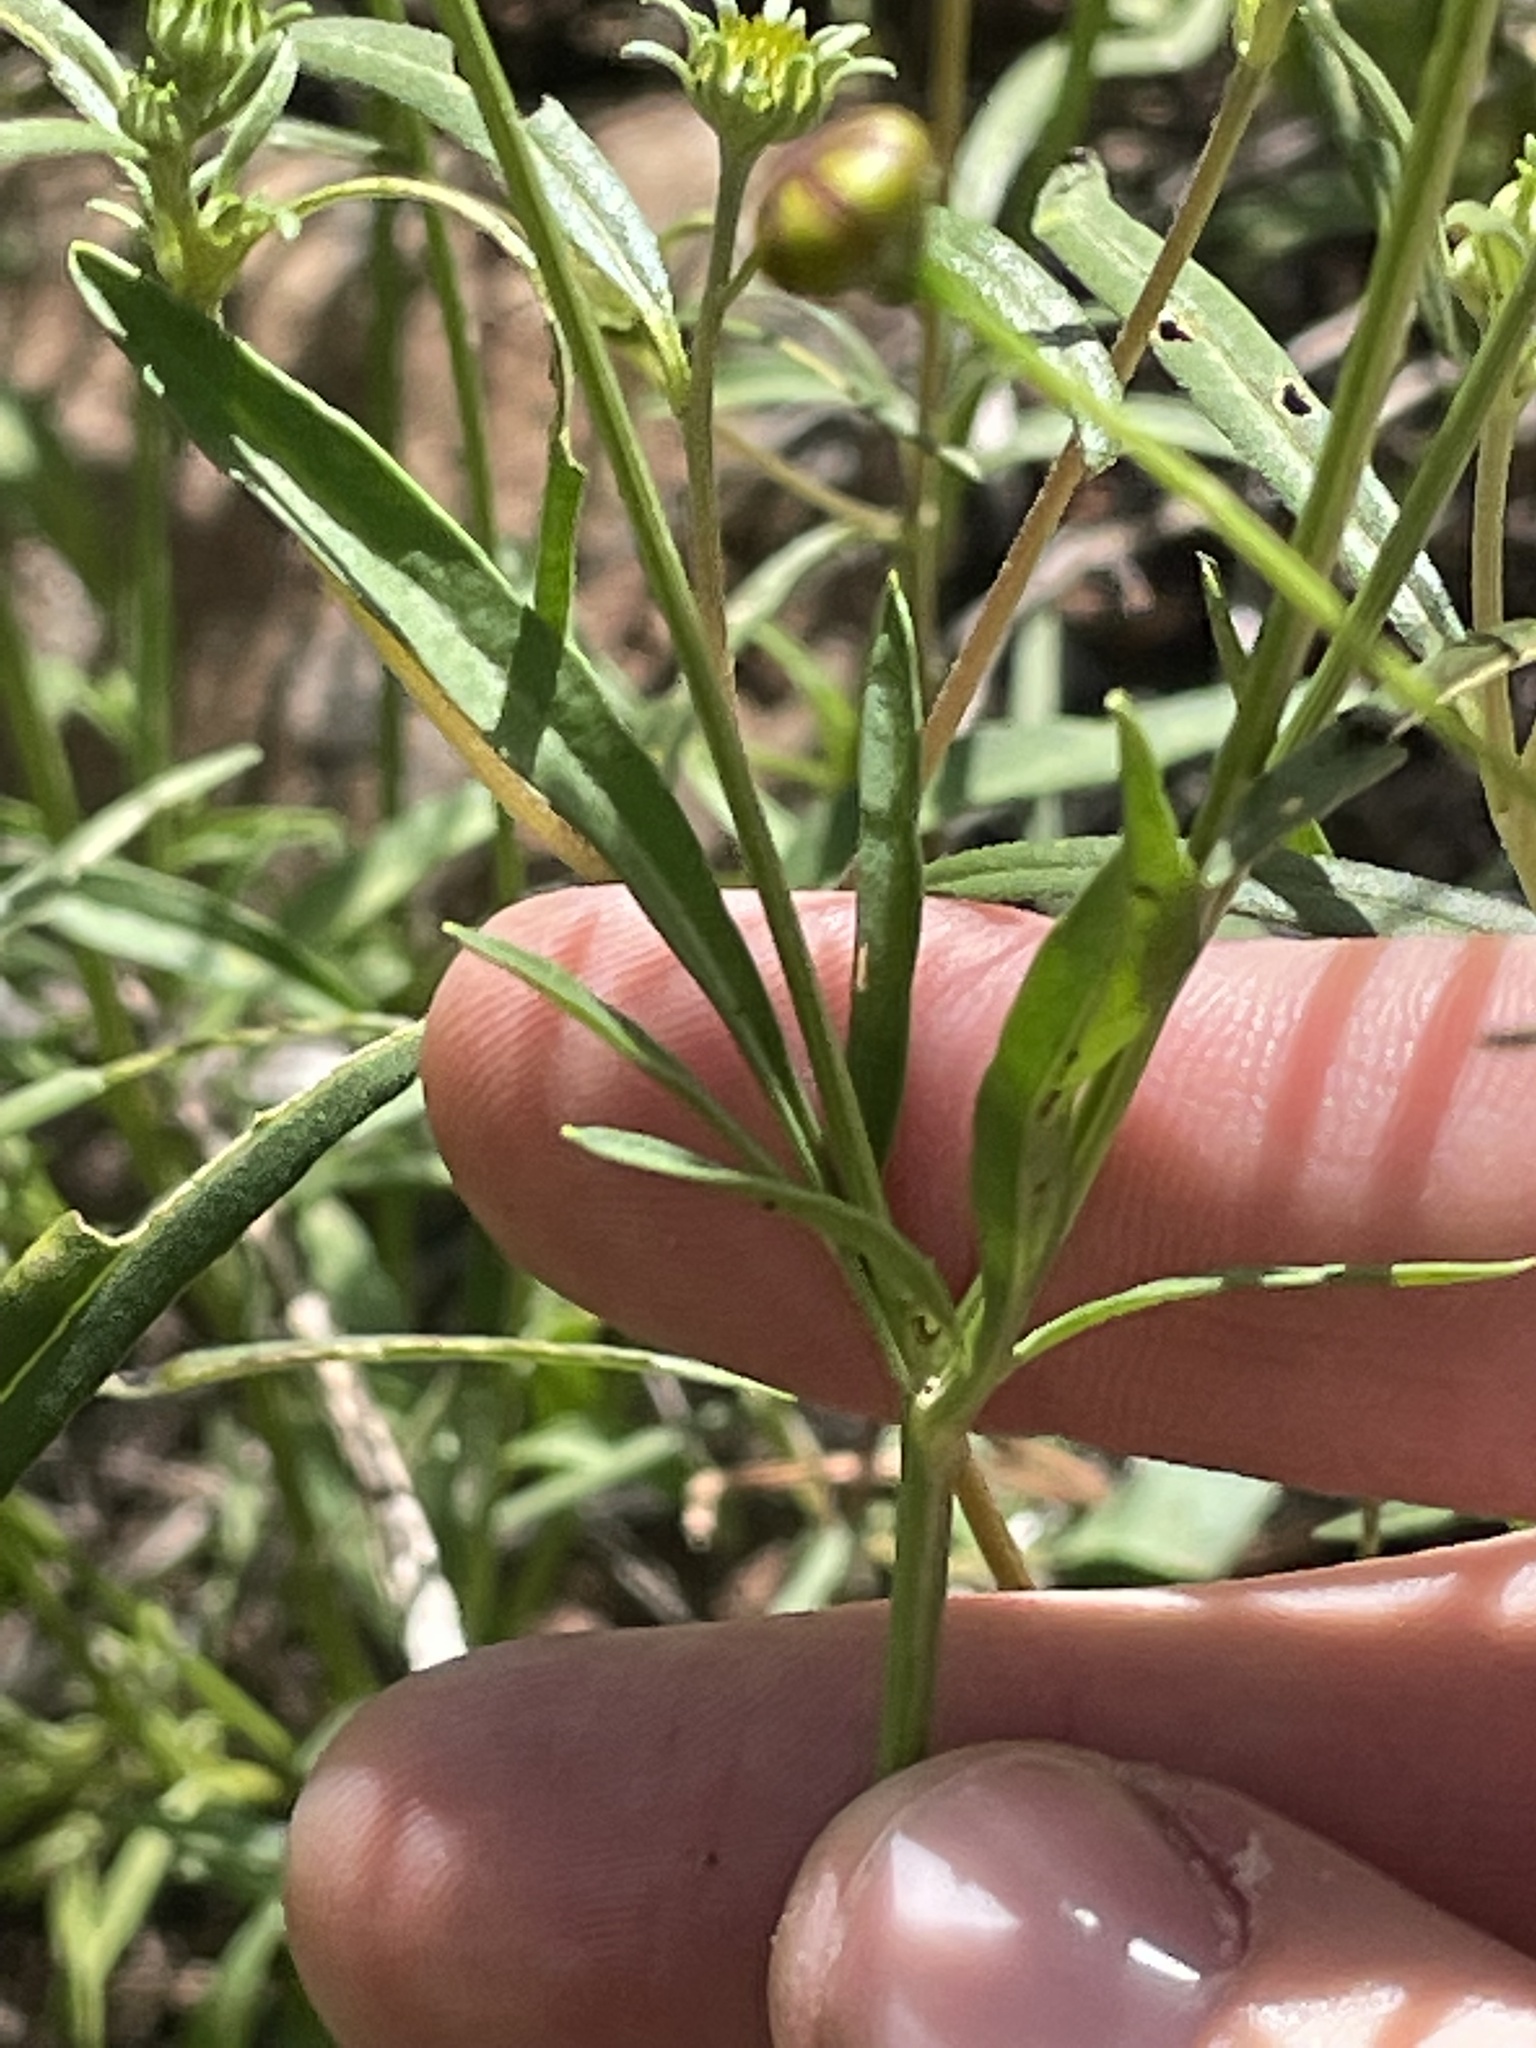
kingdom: Plantae
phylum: Tracheophyta
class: Magnoliopsida
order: Asterales
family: Asteraceae
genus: Coreopsis
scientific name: Coreopsis tinctoria
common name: Garden tickseed
